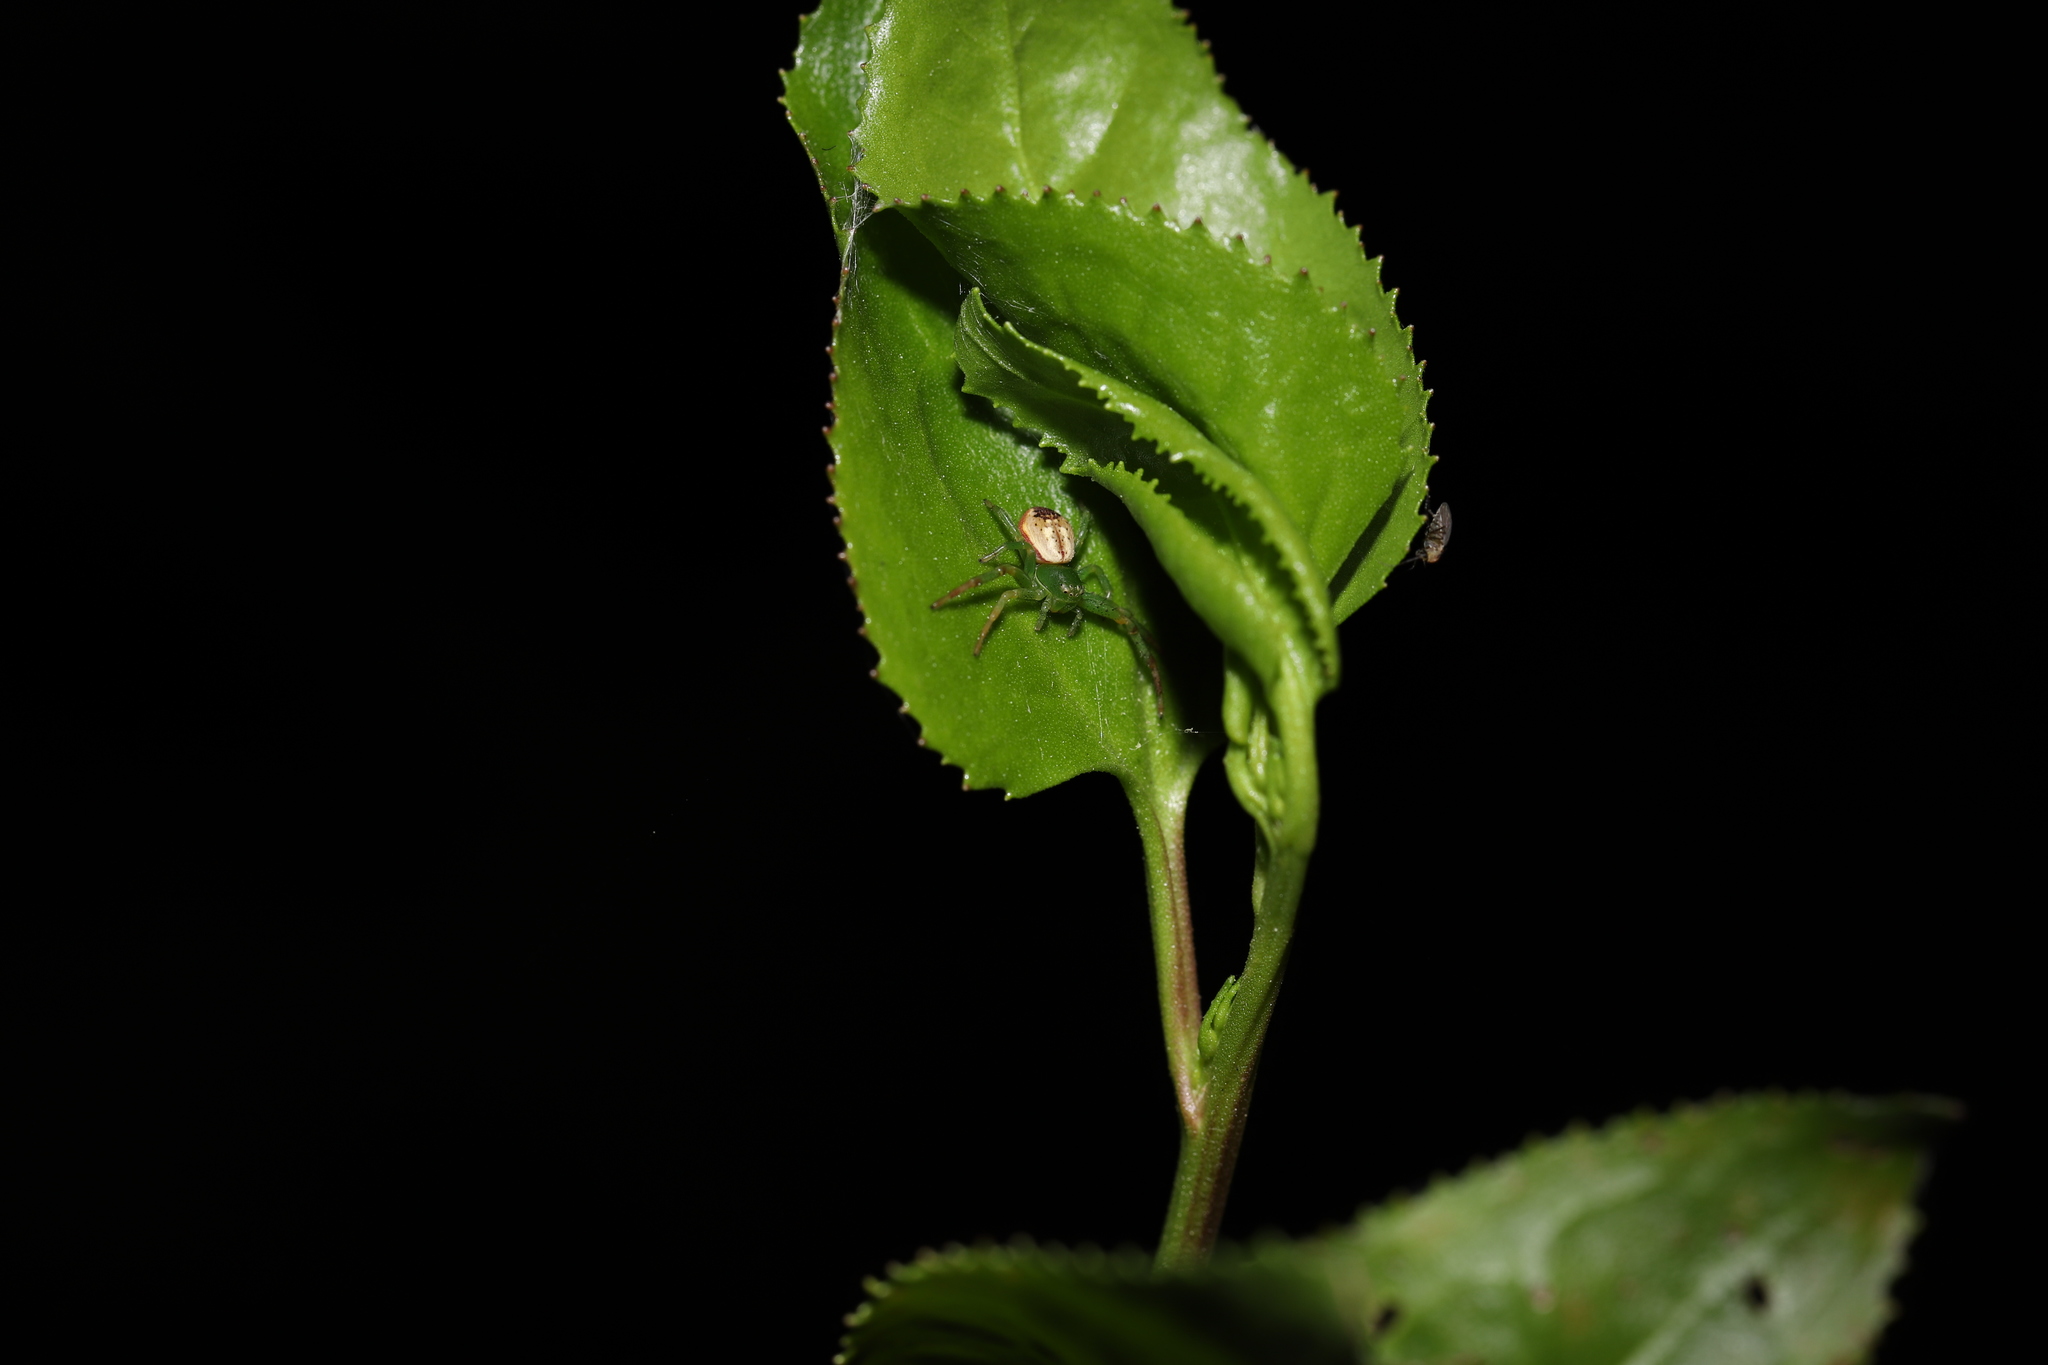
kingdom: Animalia
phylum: Arthropoda
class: Arachnida
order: Araneae
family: Thomisidae
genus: Australomisidia
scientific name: Australomisidia pilula
